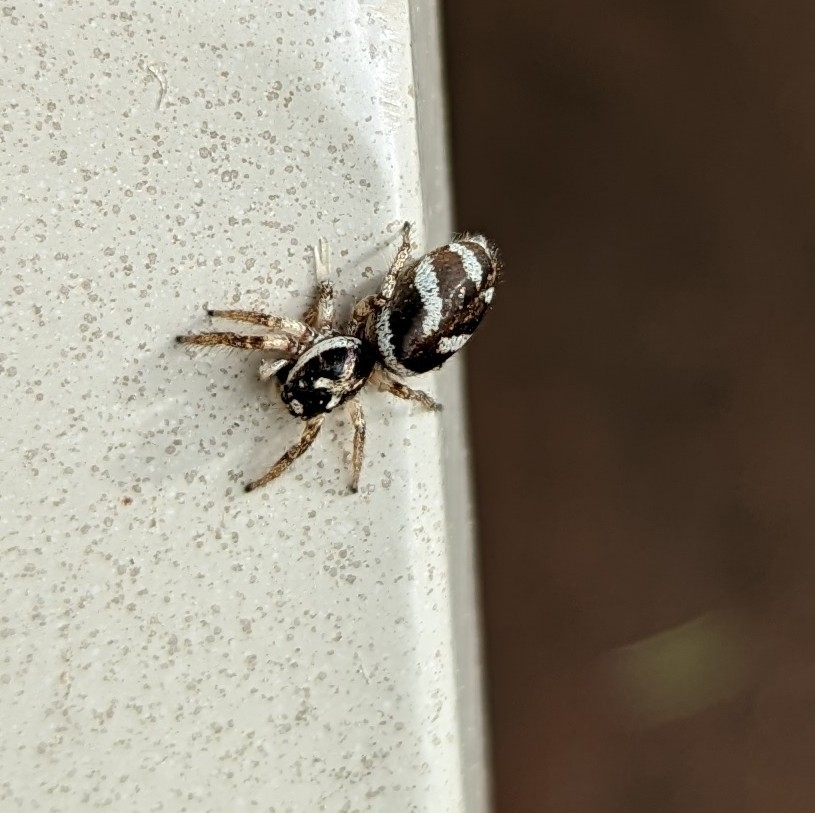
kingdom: Animalia
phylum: Arthropoda
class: Arachnida
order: Araneae
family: Salticidae
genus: Salticus
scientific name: Salticus scenicus
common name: Zebra jumper
